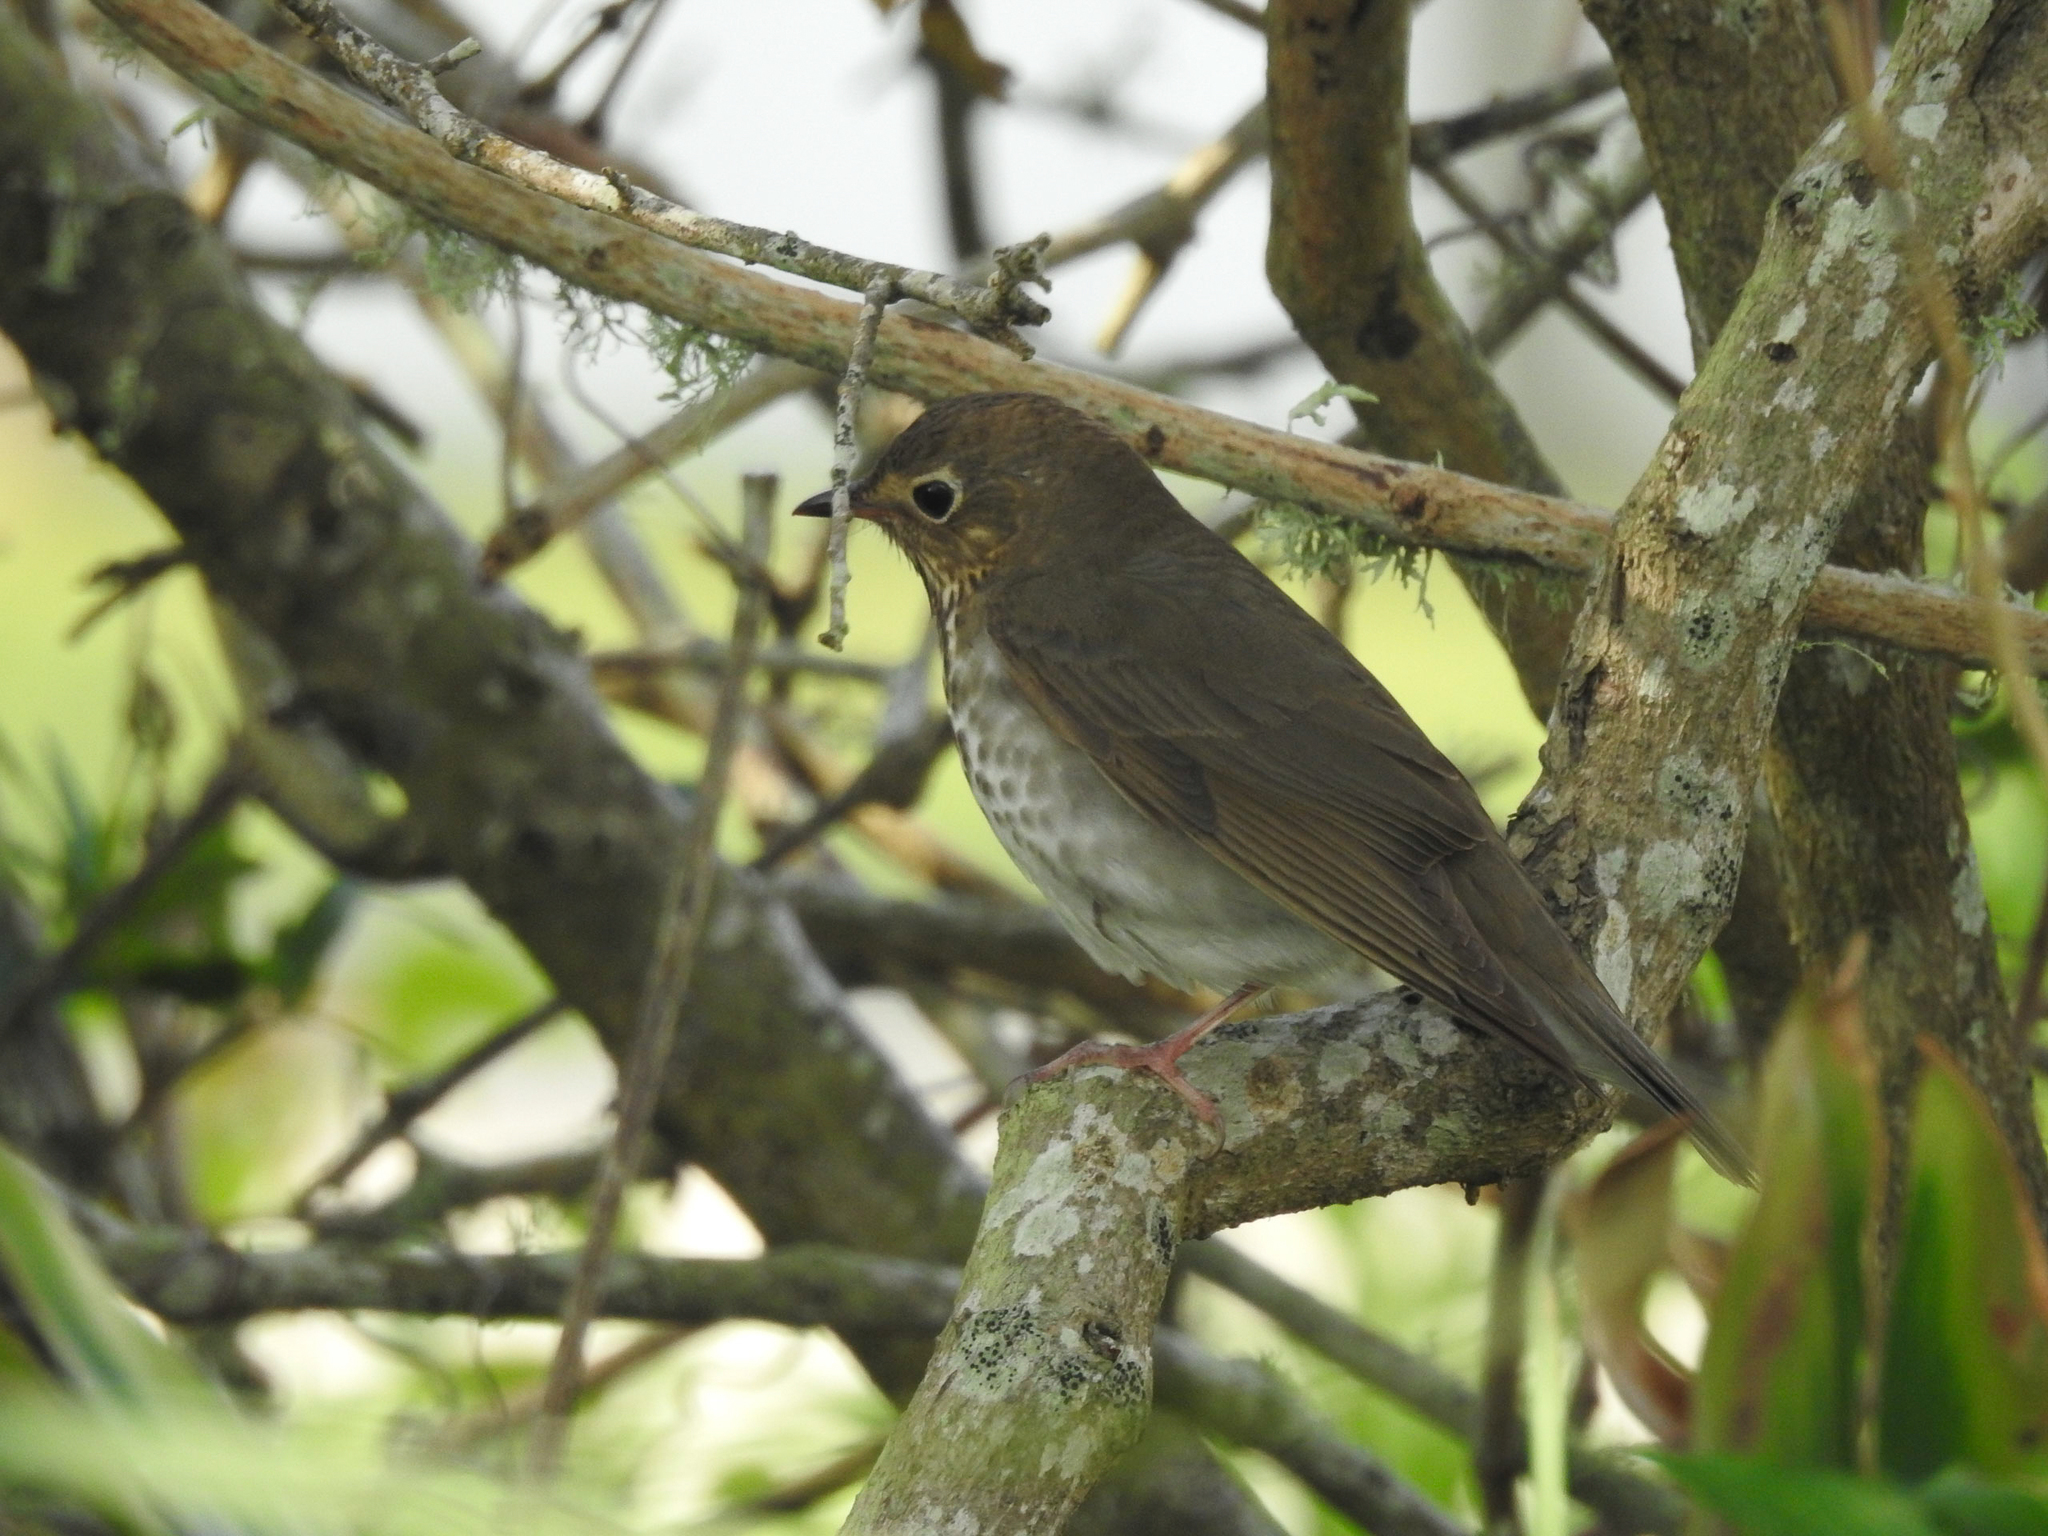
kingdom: Animalia
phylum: Chordata
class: Aves
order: Passeriformes
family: Turdidae
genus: Catharus
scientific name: Catharus ustulatus
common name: Swainson's thrush
